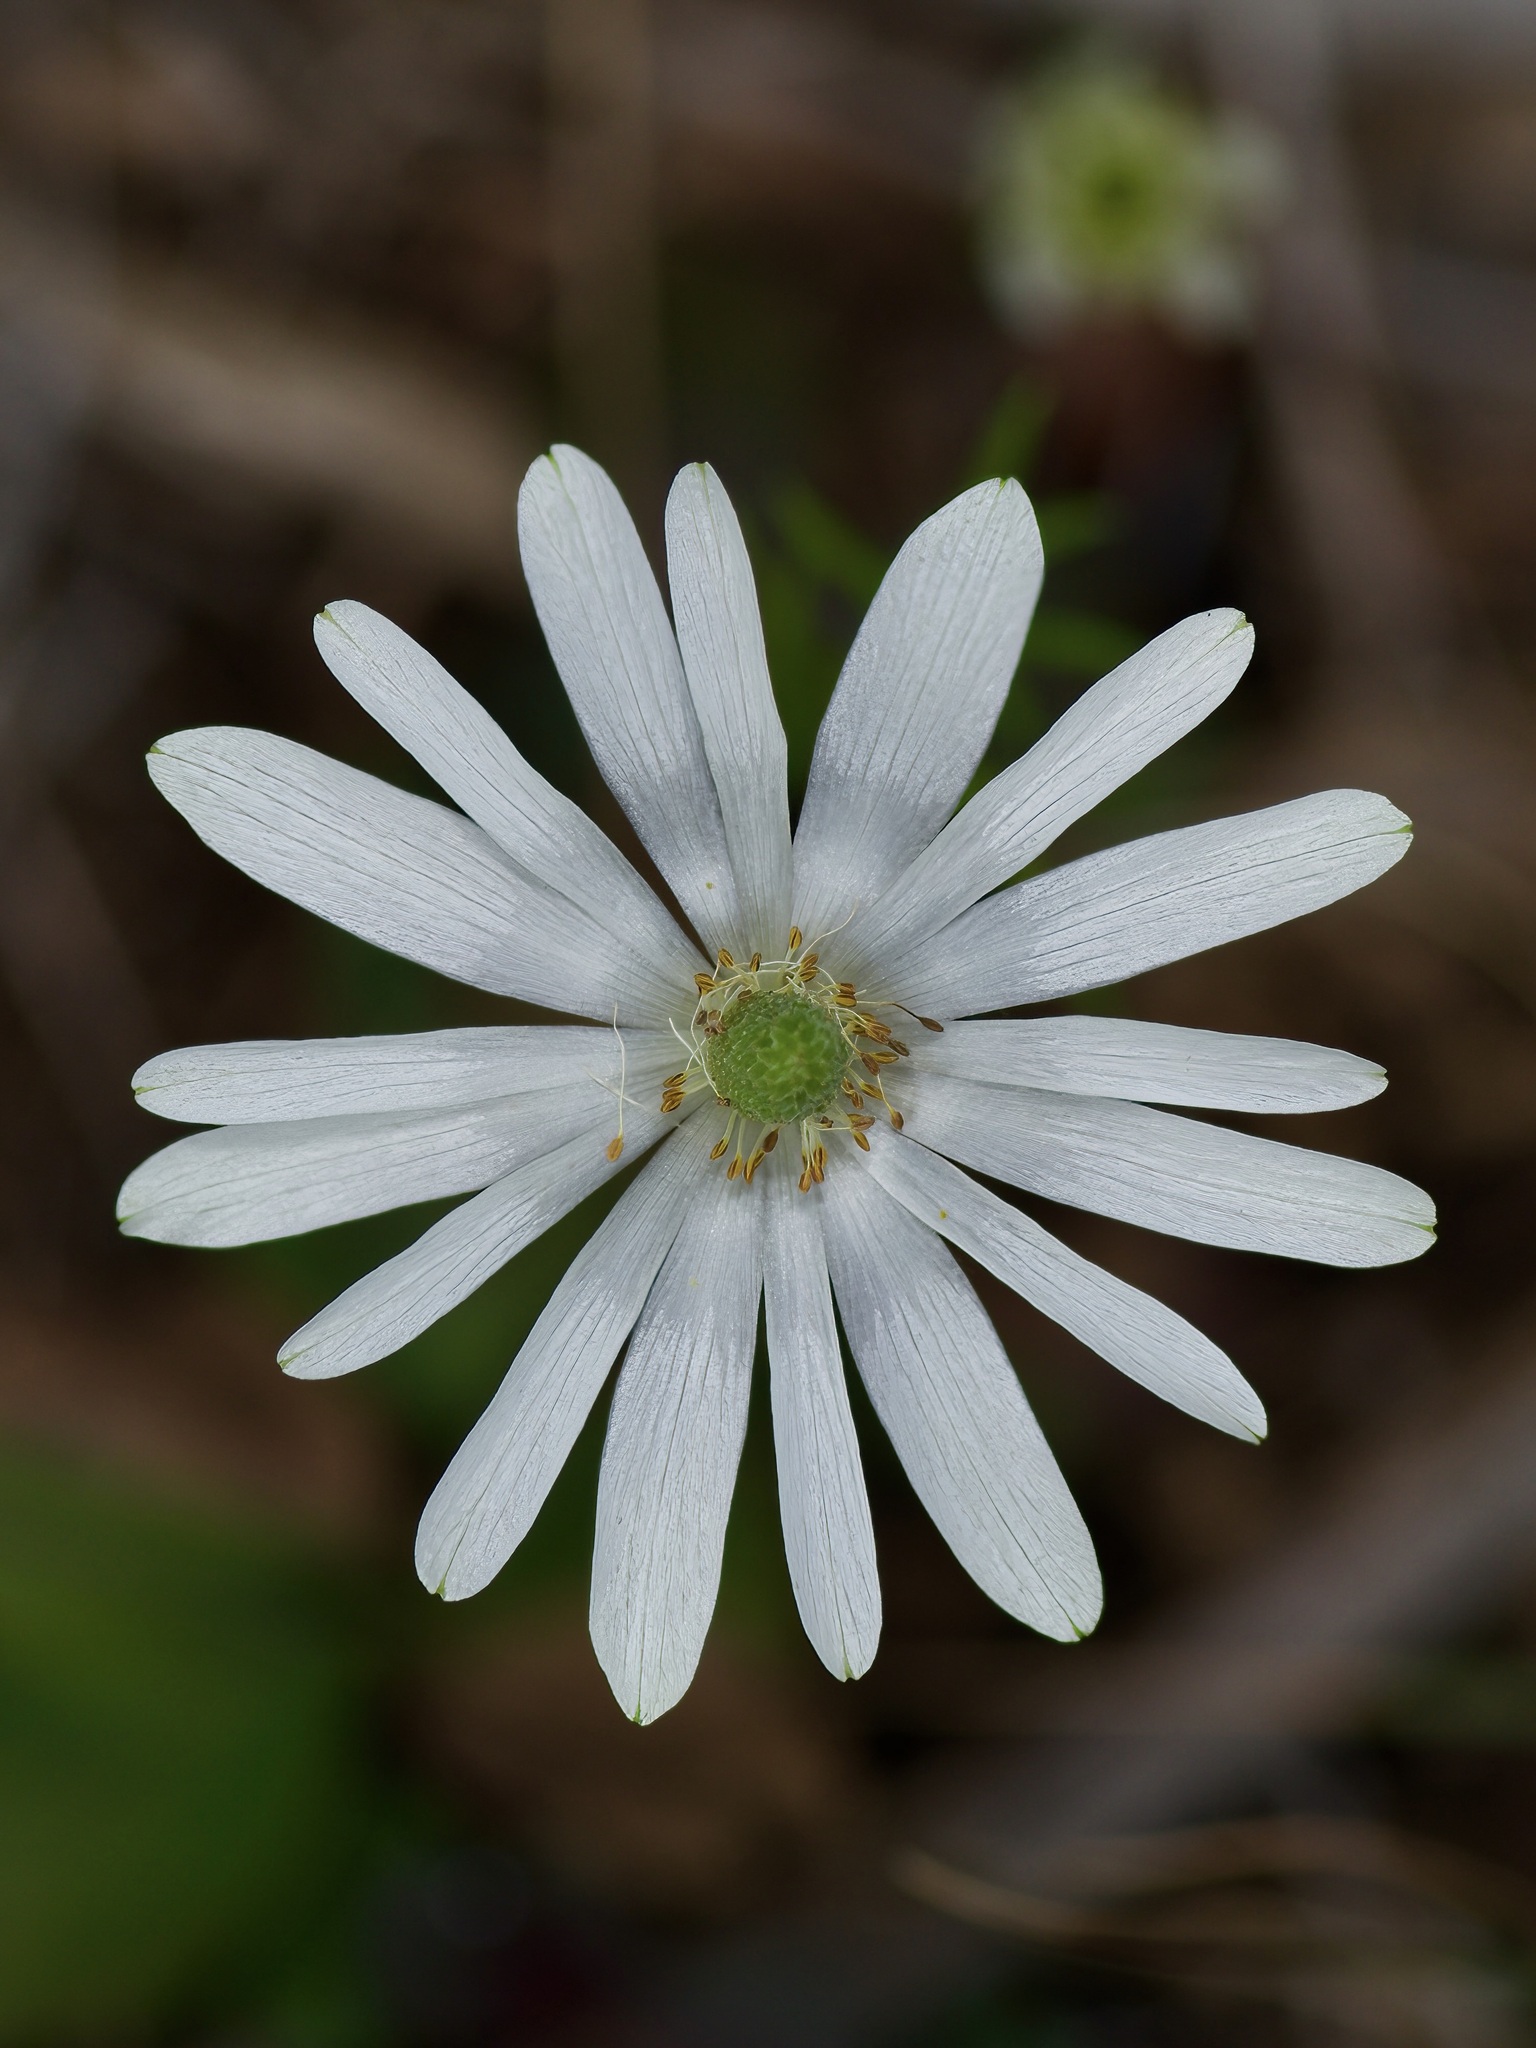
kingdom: Plantae
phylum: Tracheophyta
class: Magnoliopsida
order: Ranunculales
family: Ranunculaceae
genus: Anemone
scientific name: Anemone berlandieri
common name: Ten-petal anemone
